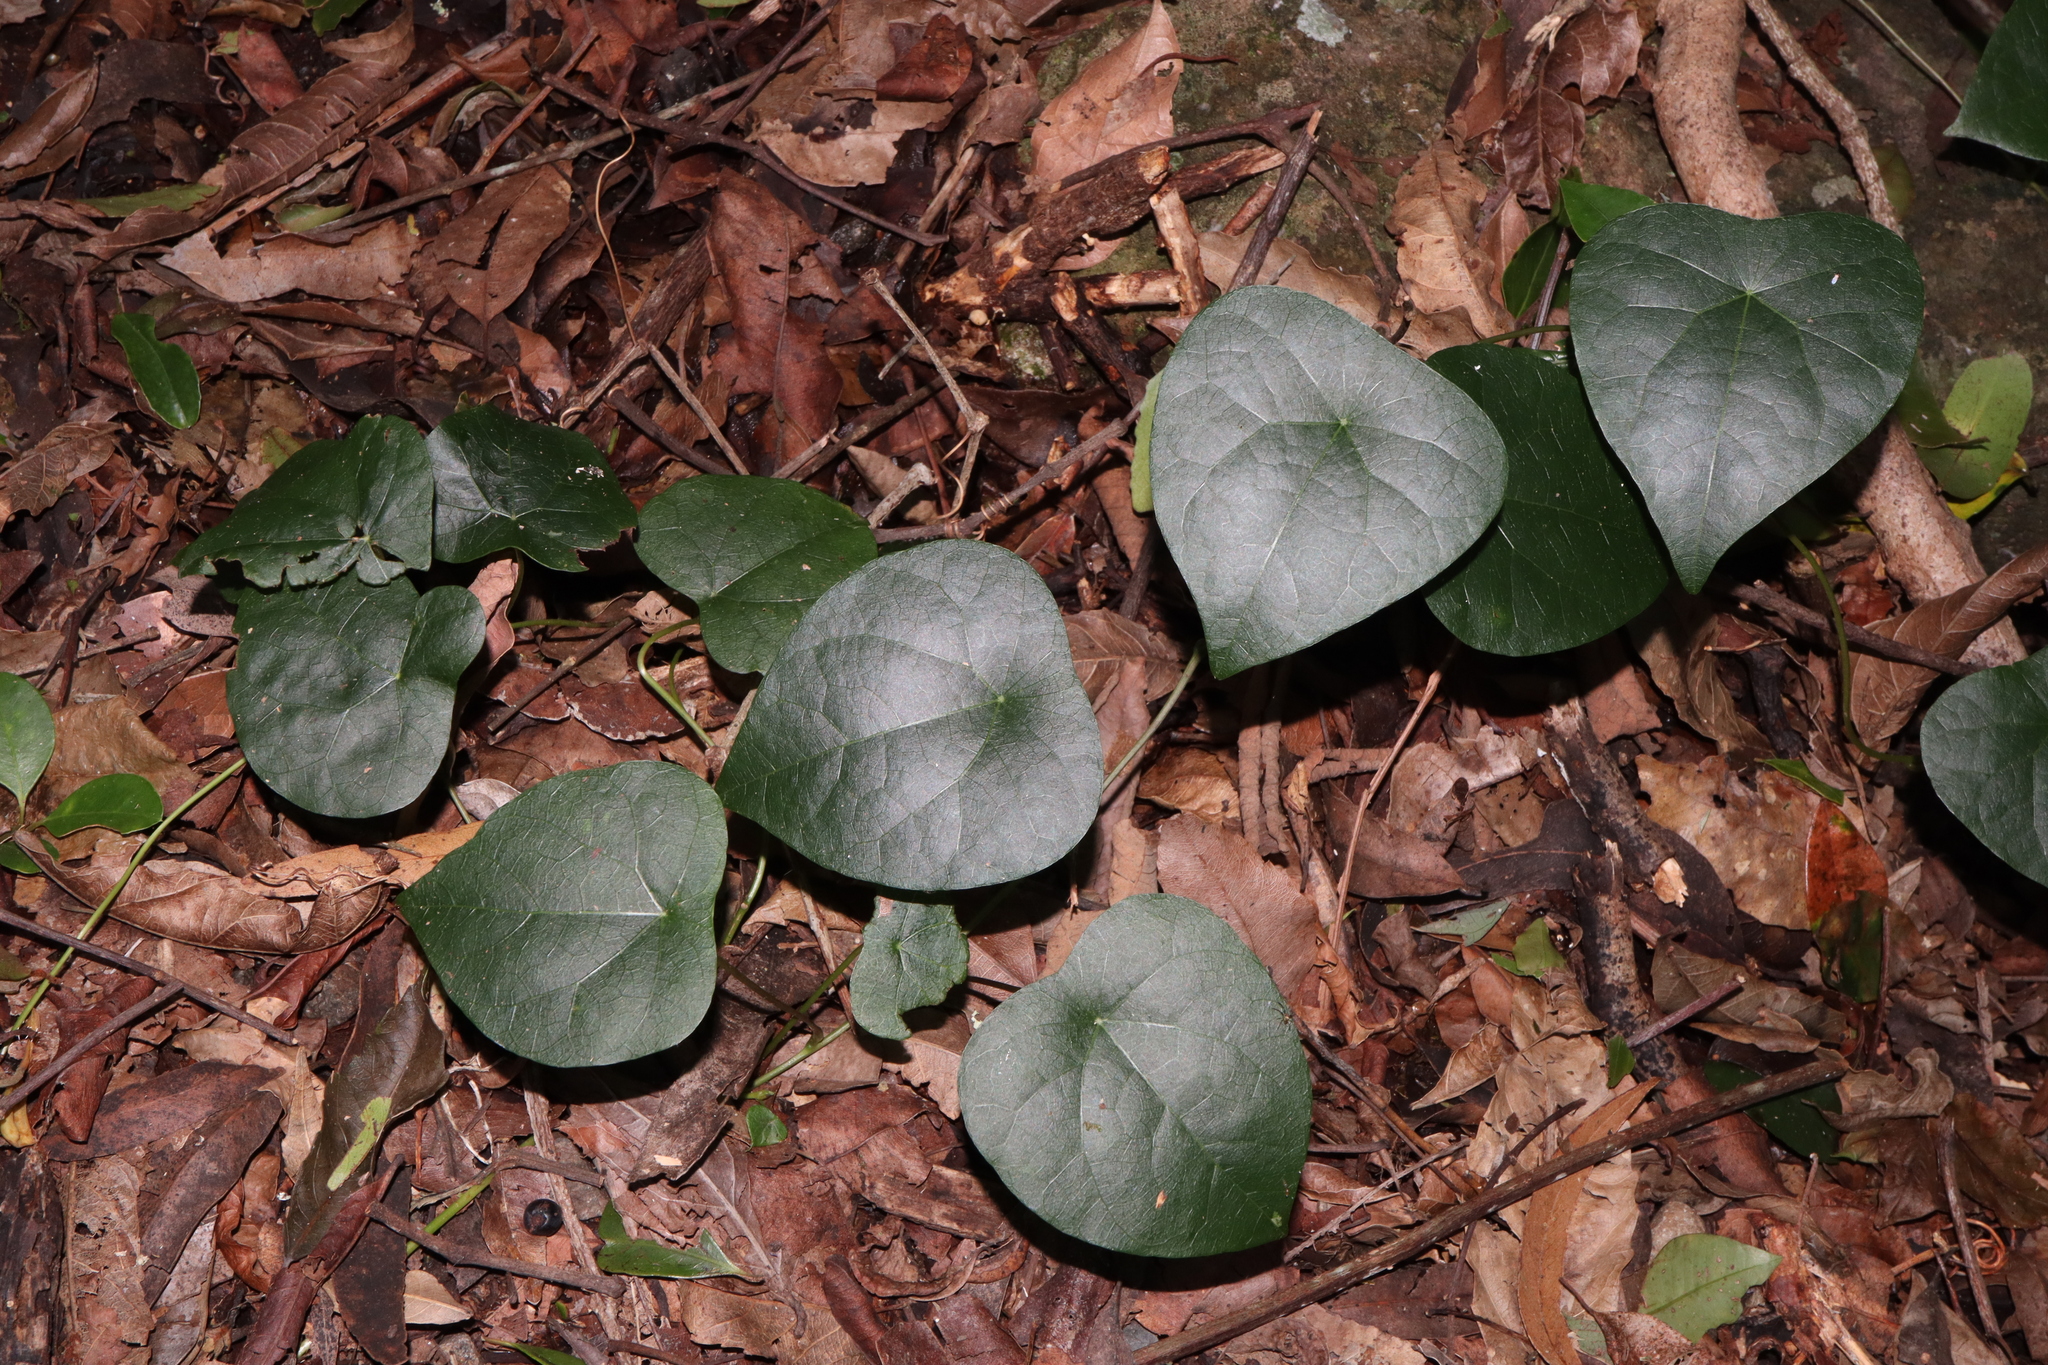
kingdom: Plantae
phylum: Tracheophyta
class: Magnoliopsida
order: Ranunculales
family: Menispermaceae
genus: Stephania
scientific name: Stephania japonica
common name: Snake vine
